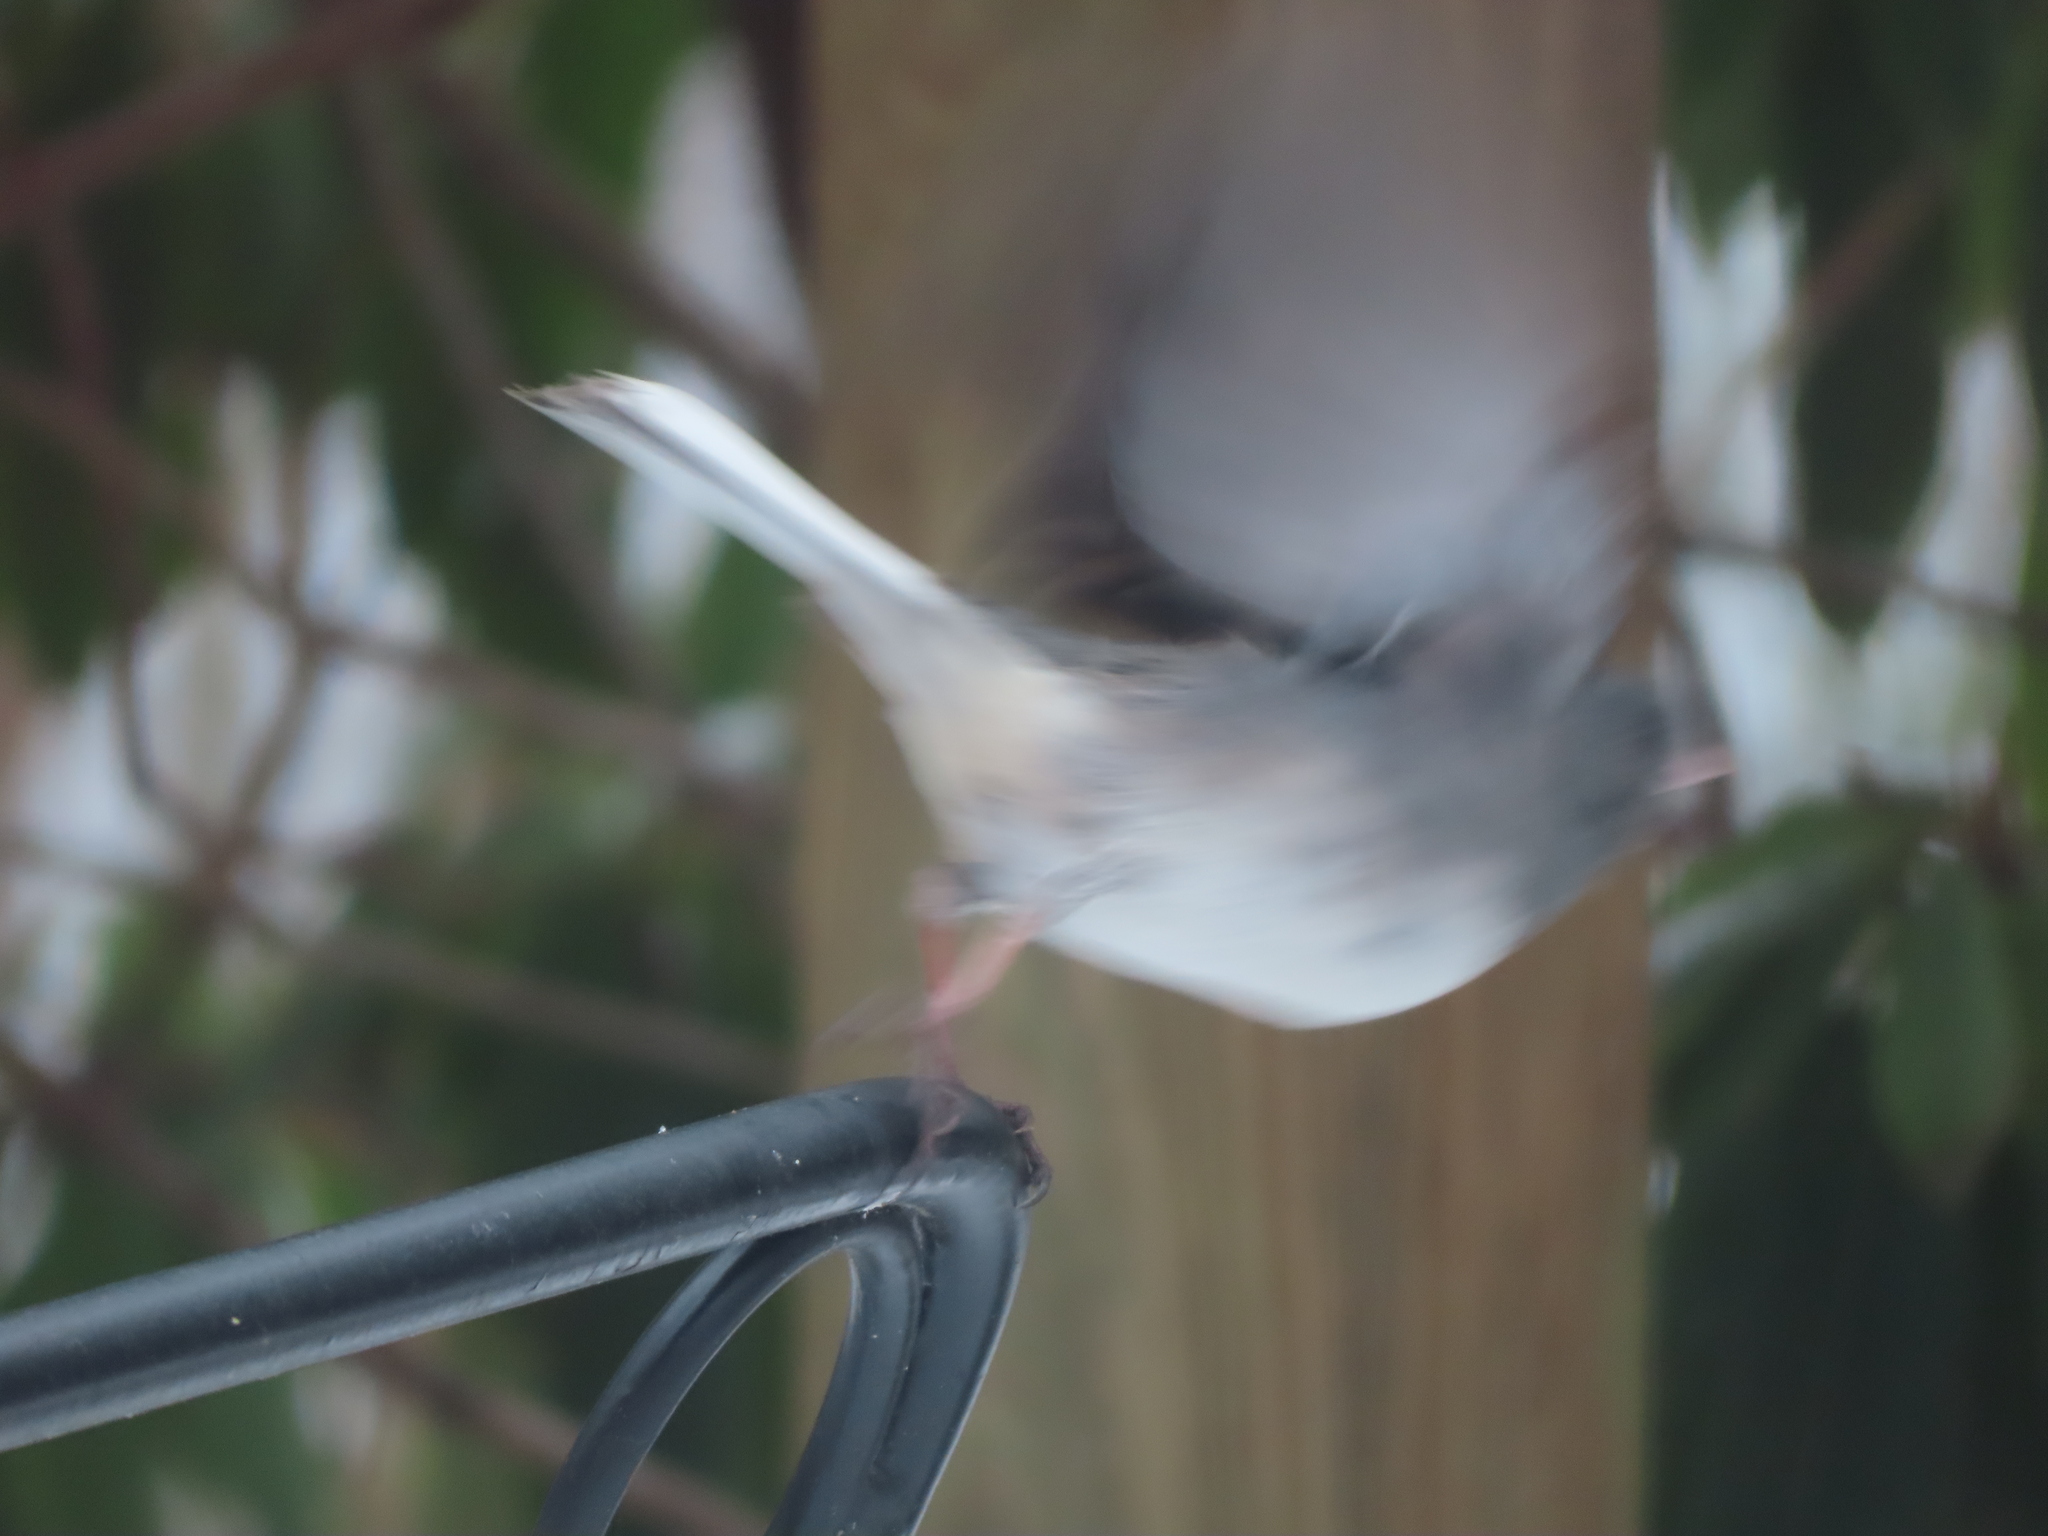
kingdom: Animalia
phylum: Chordata
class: Aves
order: Passeriformes
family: Passerellidae
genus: Junco
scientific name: Junco hyemalis
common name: Dark-eyed junco
